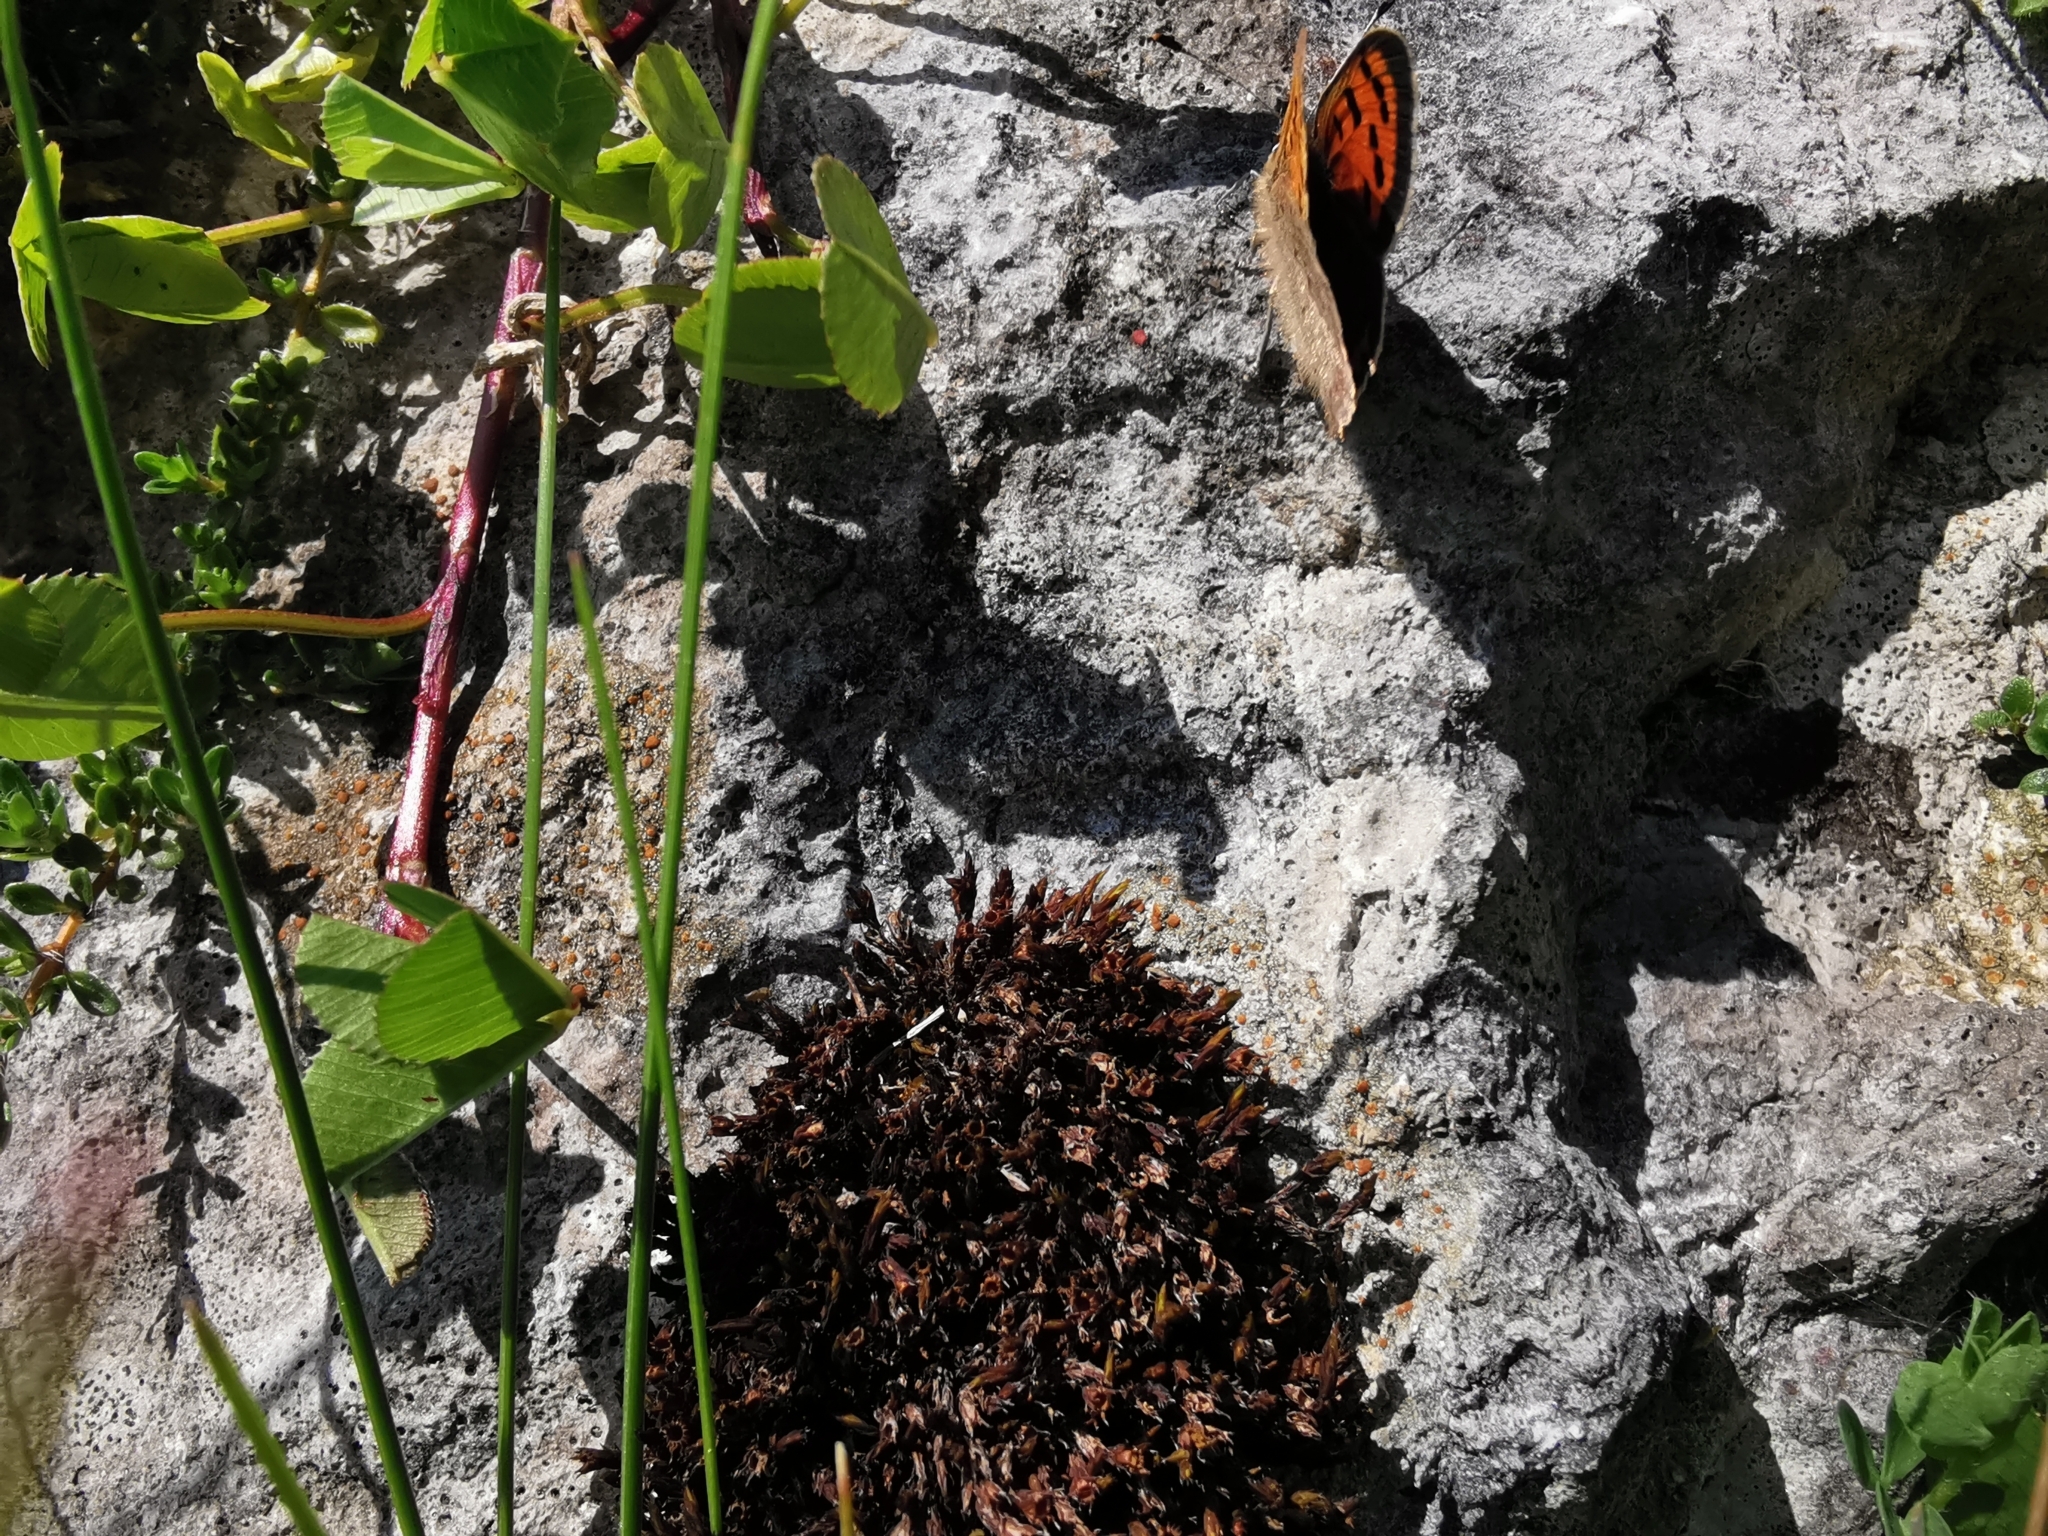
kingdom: Animalia
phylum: Arthropoda
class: Insecta
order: Lepidoptera
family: Lycaenidae
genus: Lycaena
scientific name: Lycaena phlaeas
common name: Small copper
